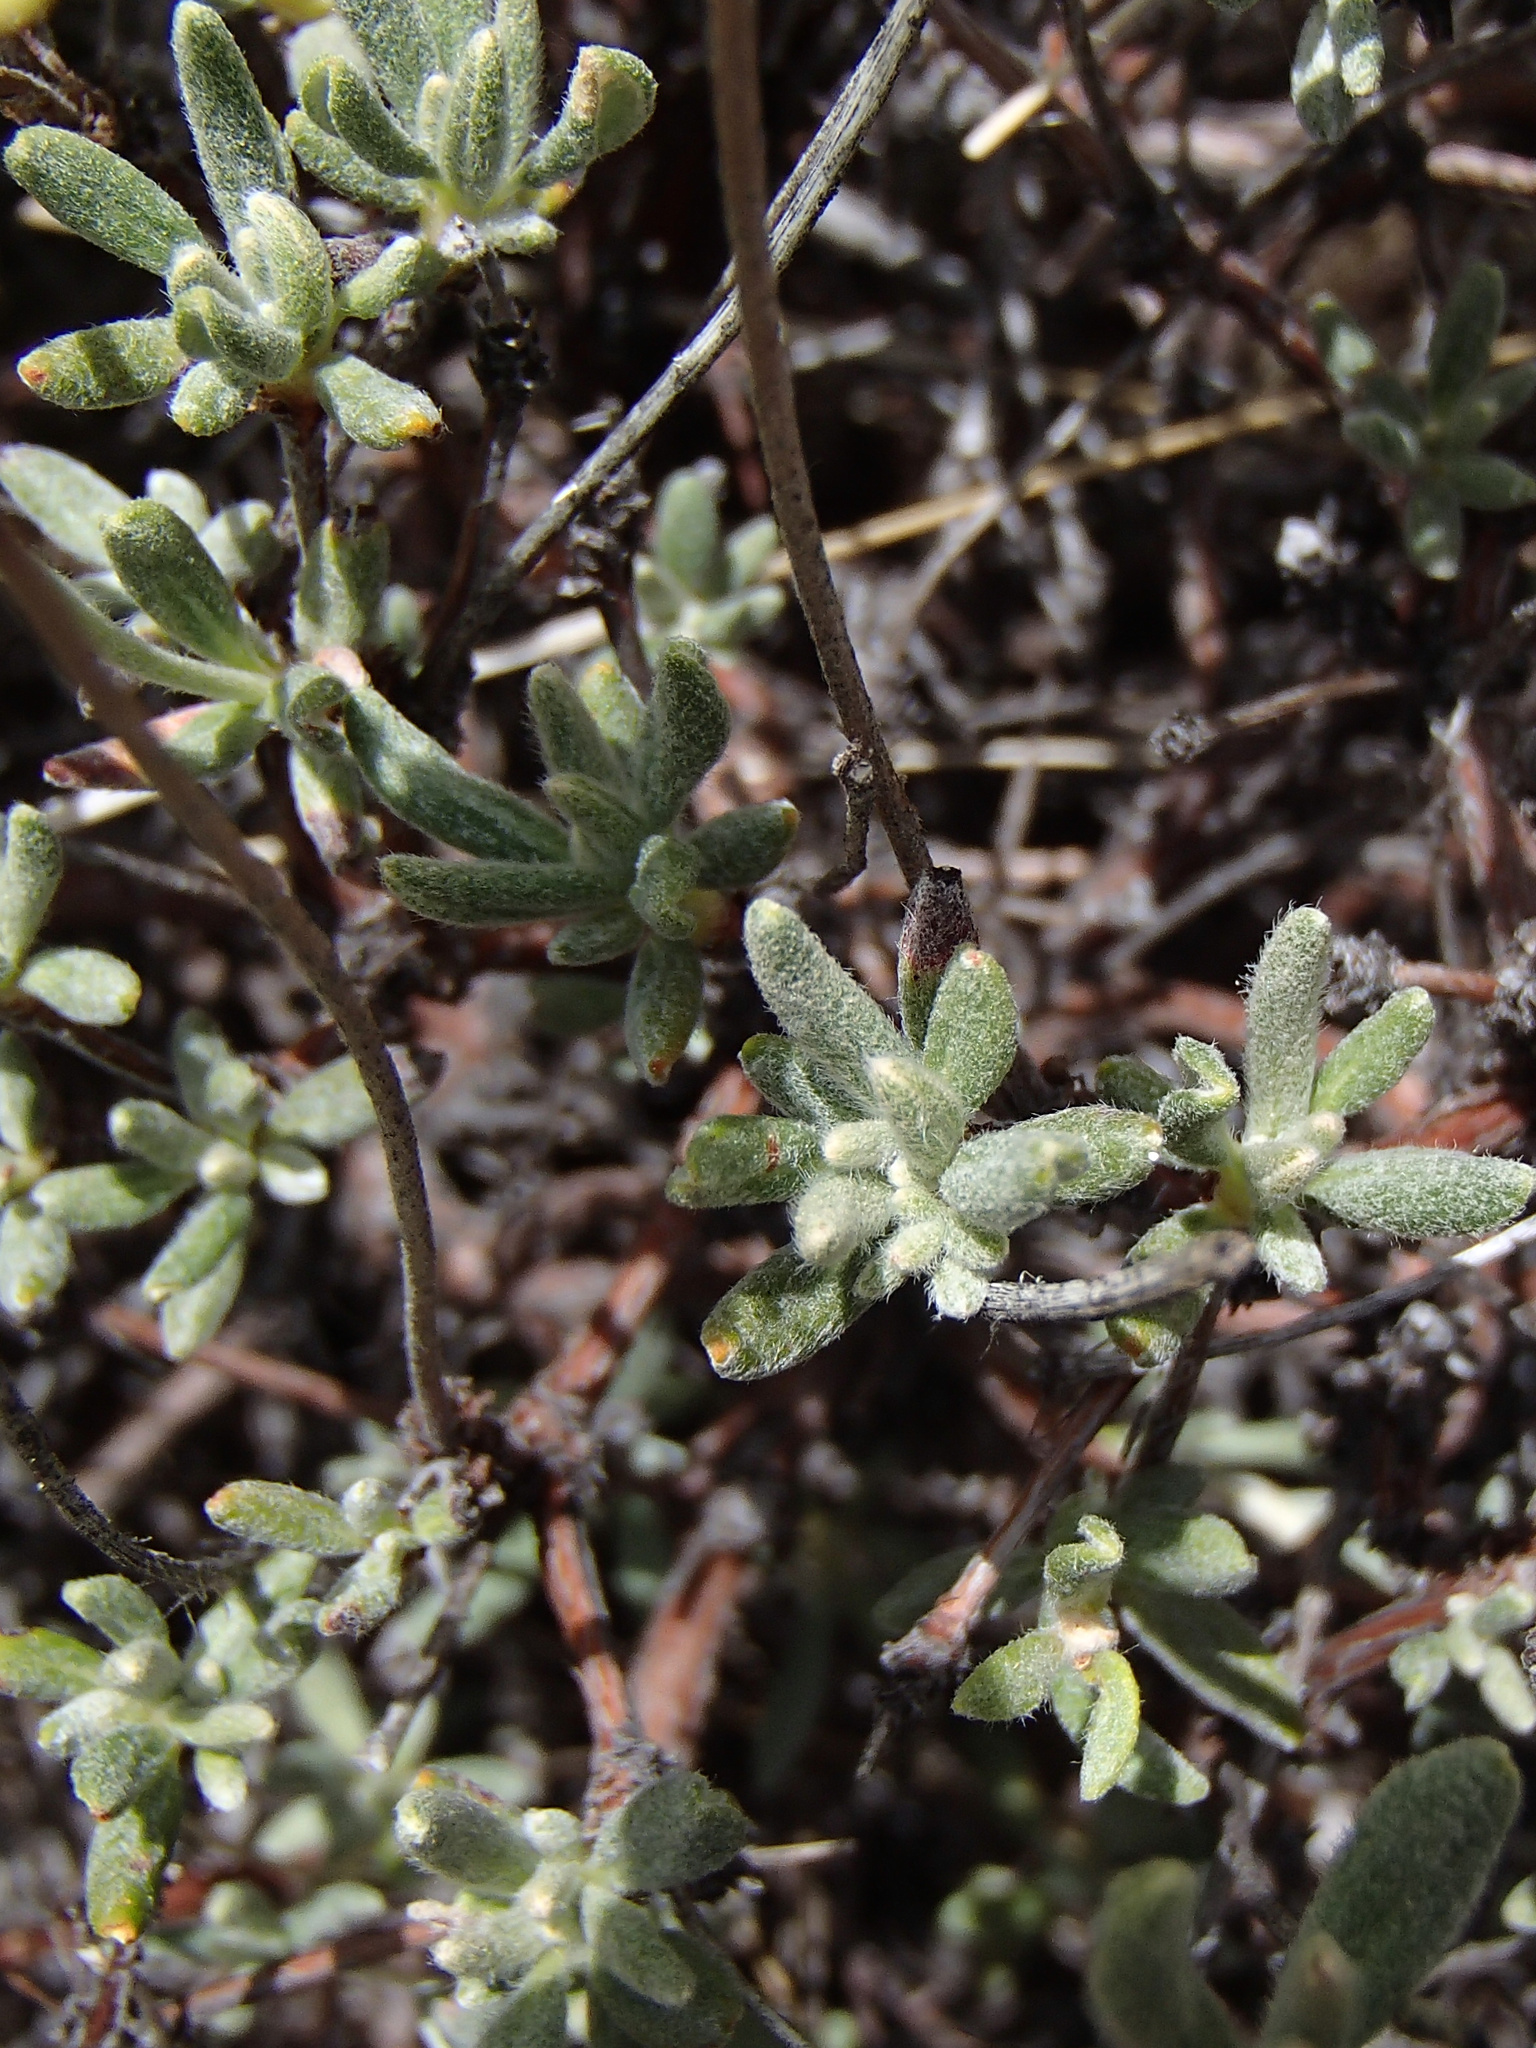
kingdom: Plantae
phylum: Tracheophyta
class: Magnoliopsida
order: Caryophyllales
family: Polygonaceae
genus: Eriogonum
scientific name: Eriogonum sphaerocephalum
